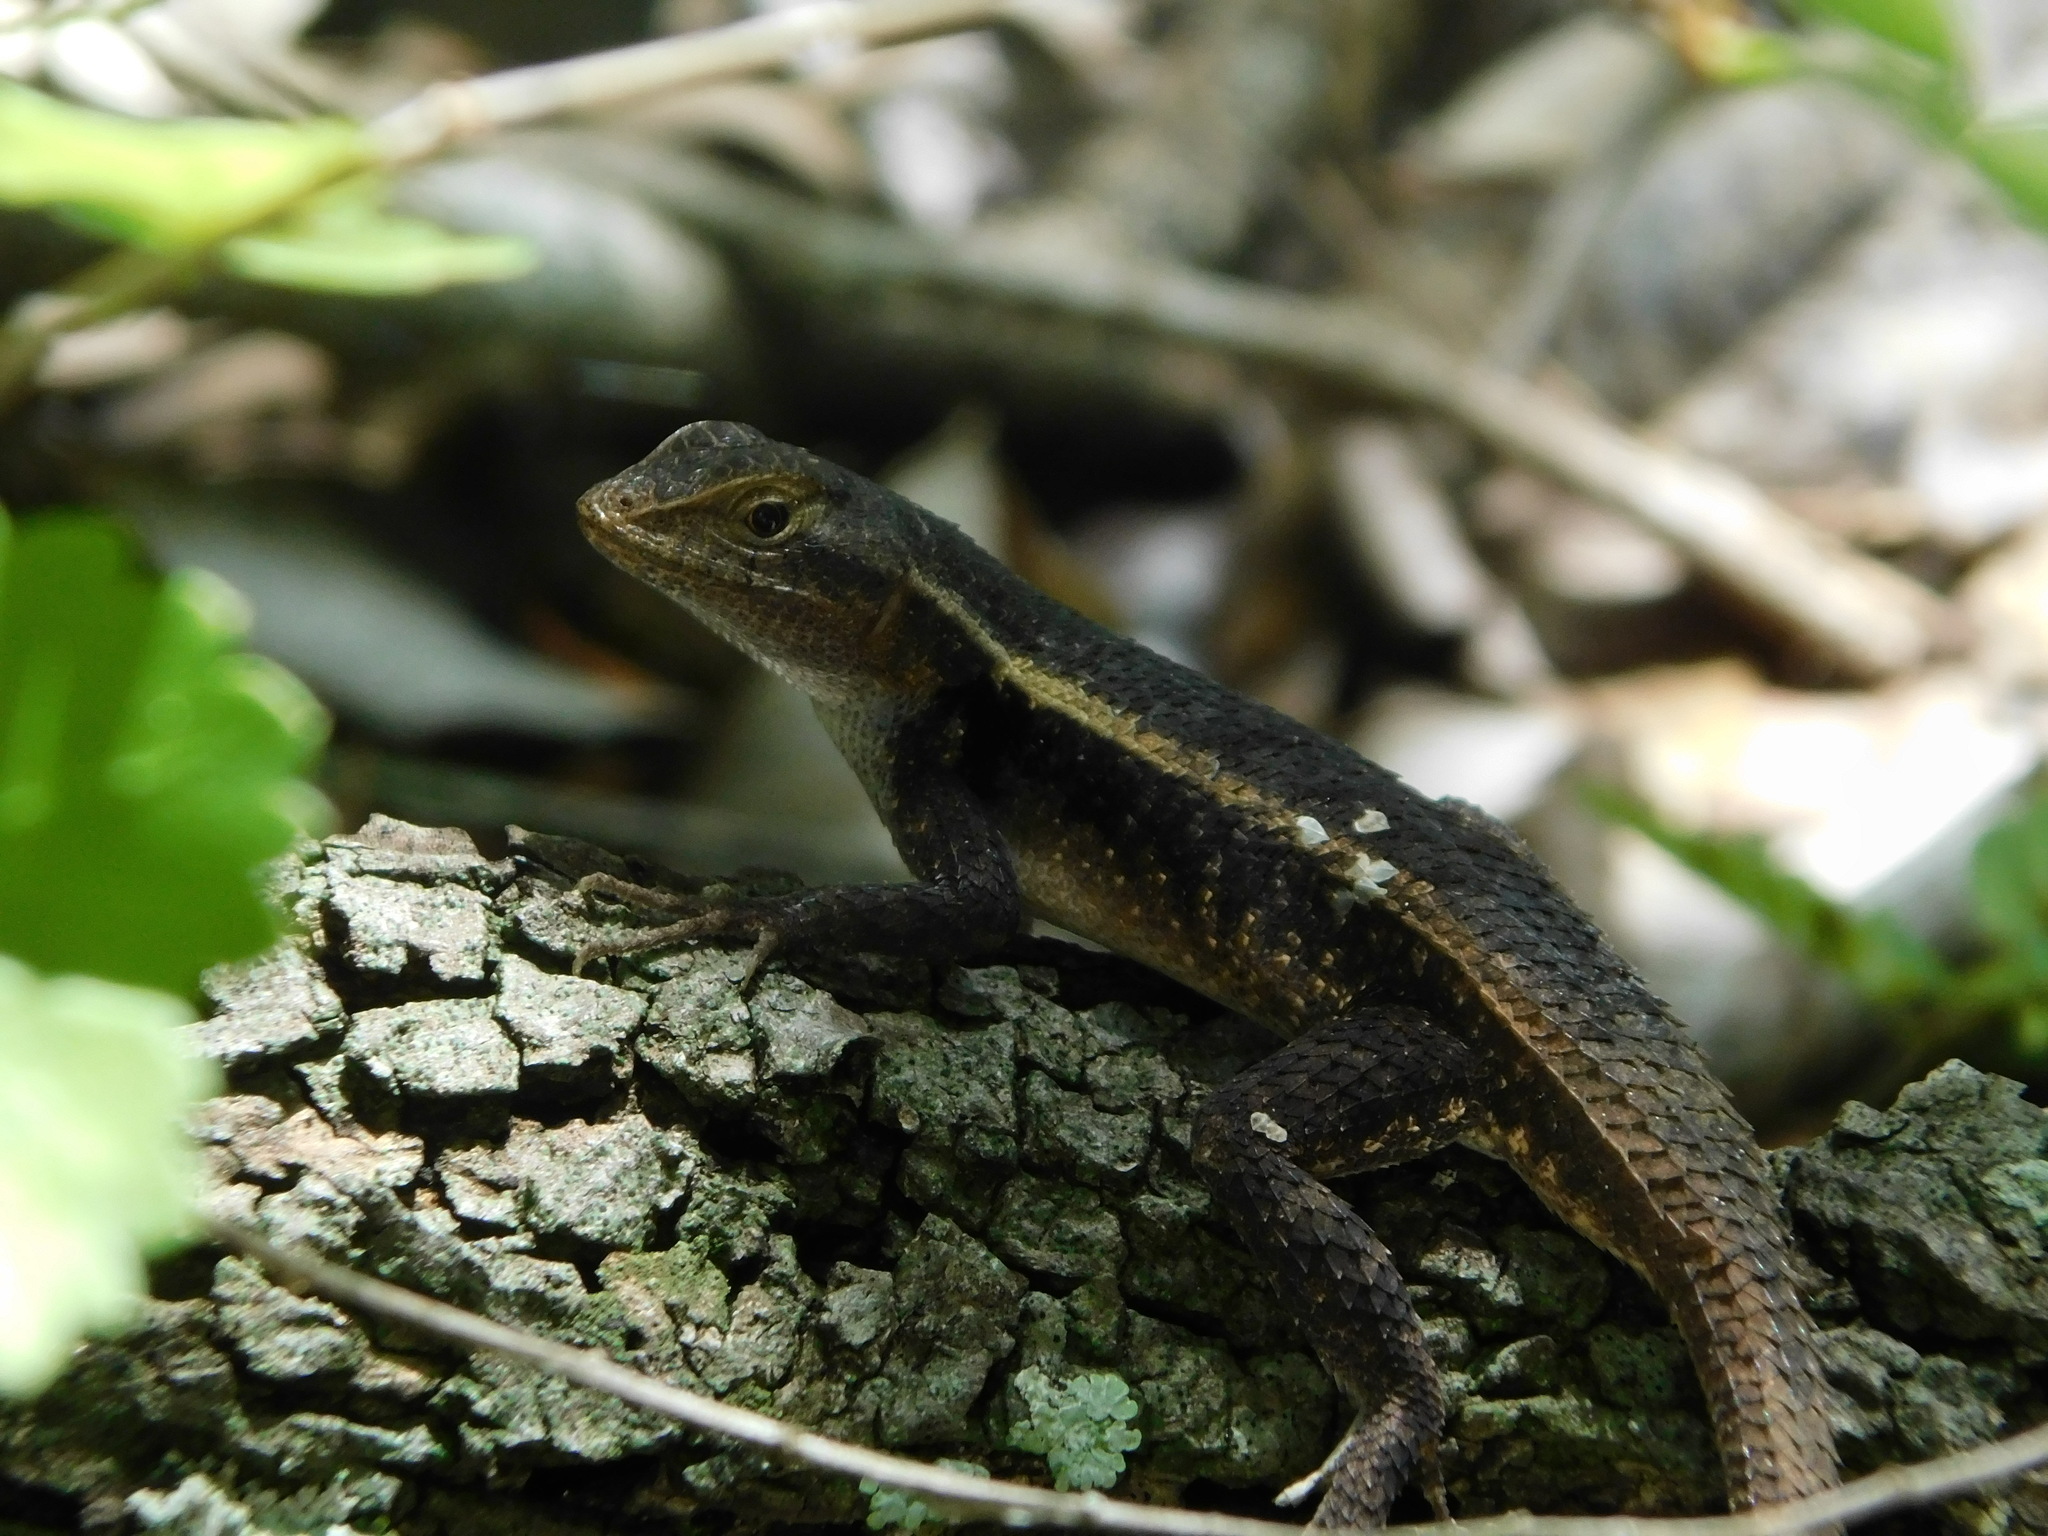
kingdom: Animalia
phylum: Chordata
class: Squamata
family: Phrynosomatidae
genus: Sceloporus
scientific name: Sceloporus chrysostictus
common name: Yellow-spotted spiny lizard
